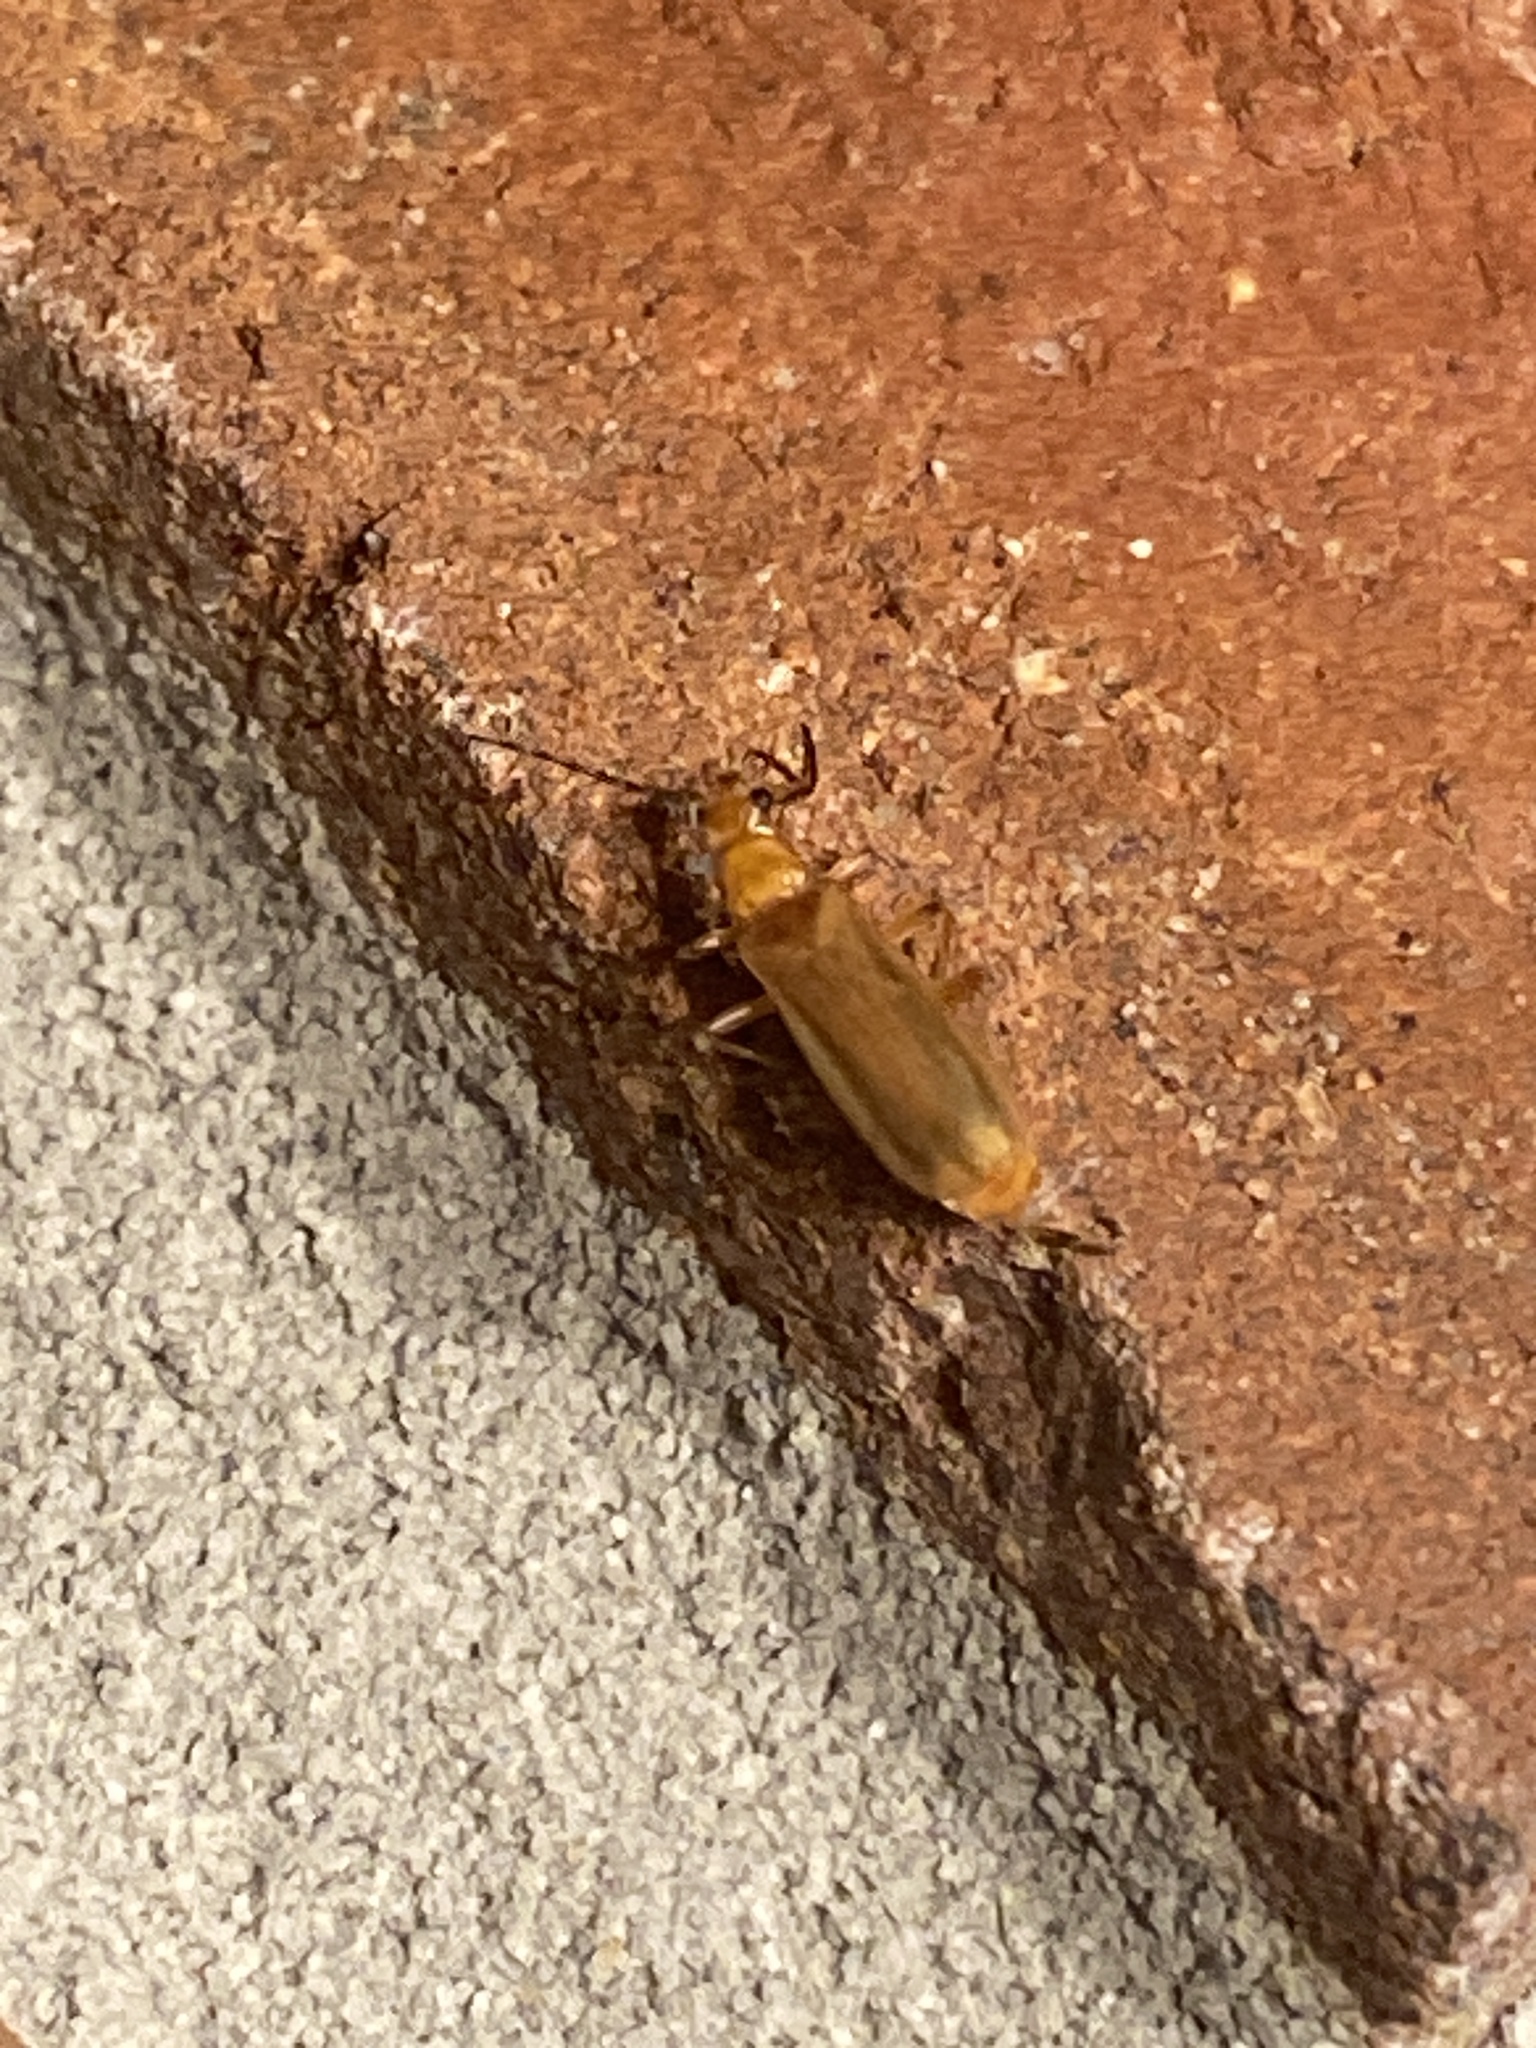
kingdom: Animalia
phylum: Arthropoda
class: Insecta
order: Coleoptera
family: Cerambycidae
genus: Smodicum
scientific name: Smodicum cucujiforme
